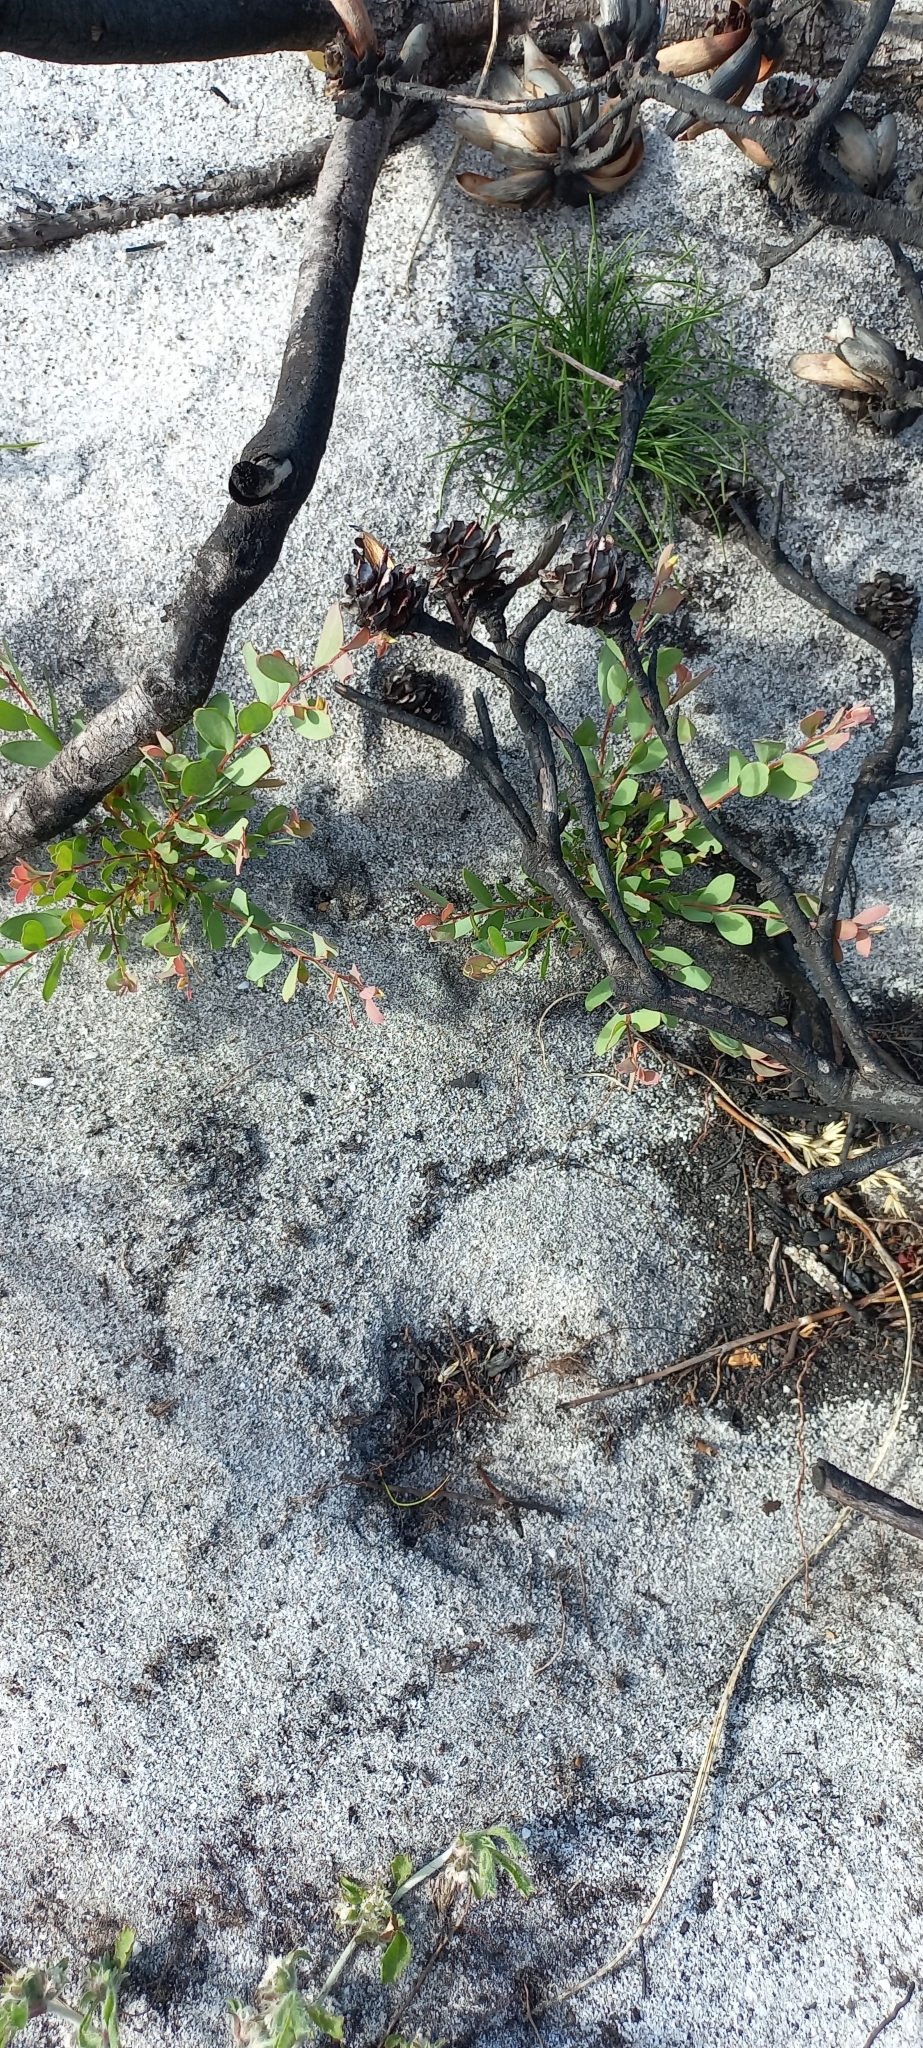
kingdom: Plantae
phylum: Tracheophyta
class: Magnoliopsida
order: Myrtales
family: Myrtaceae
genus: Leptospermum
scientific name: Leptospermum laevigatum
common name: Australian teatree
